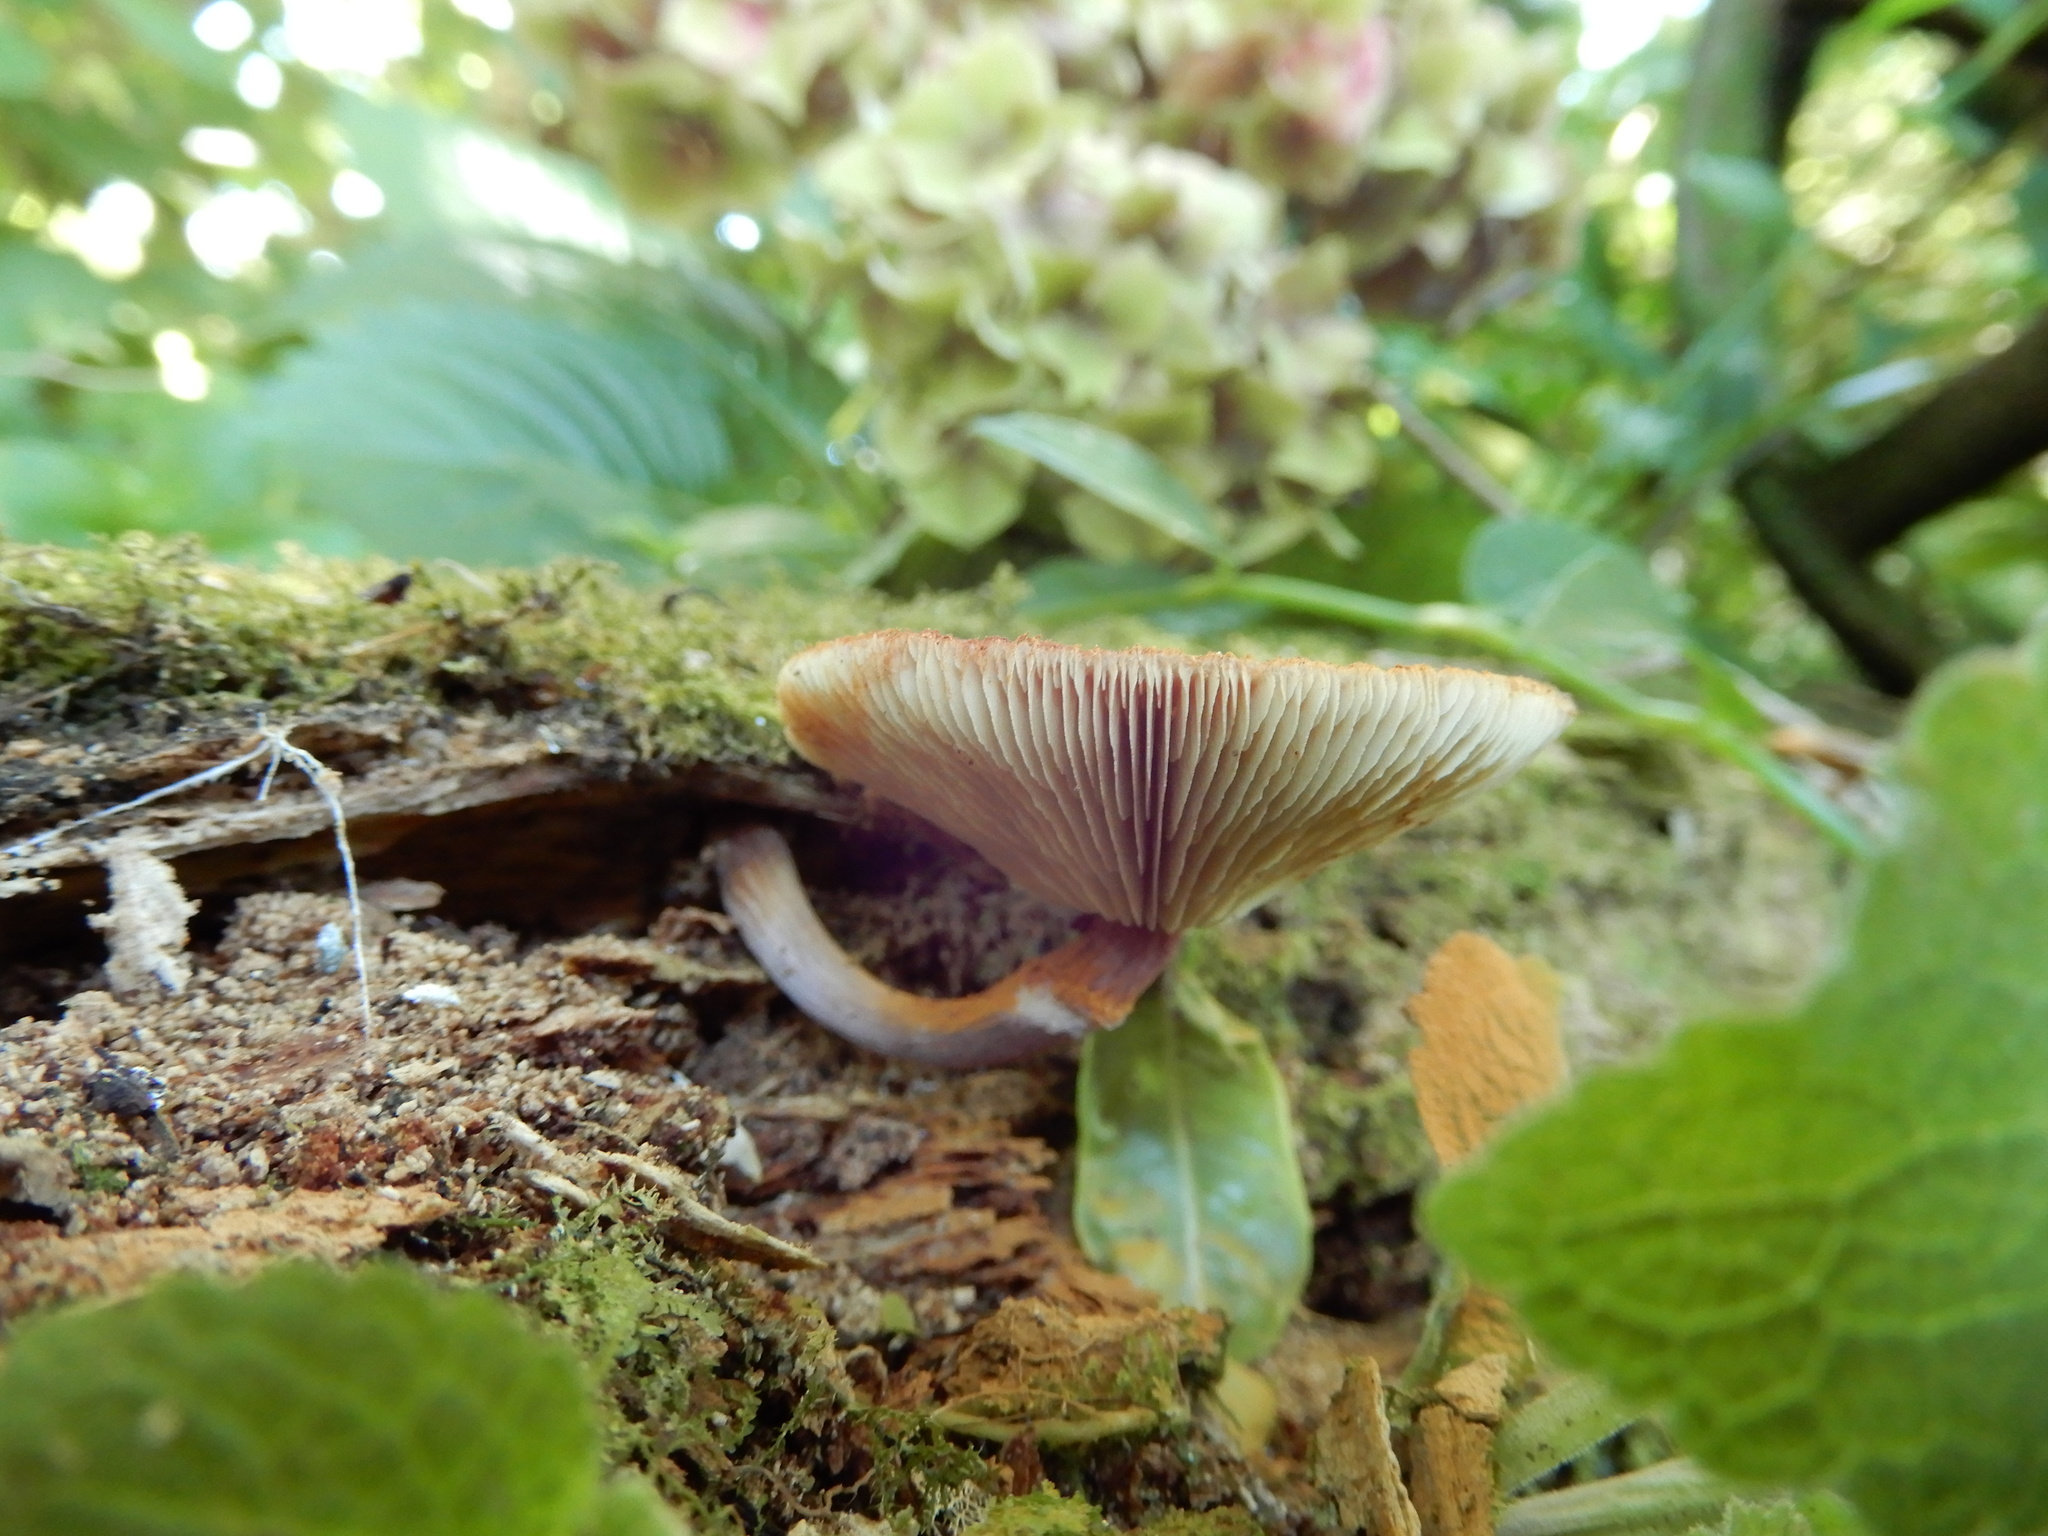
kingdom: Fungi
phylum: Basidiomycota
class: Agaricomycetes
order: Agaricales
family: Hymenogastraceae
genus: Gymnopilus
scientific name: Gymnopilus purpuratus
